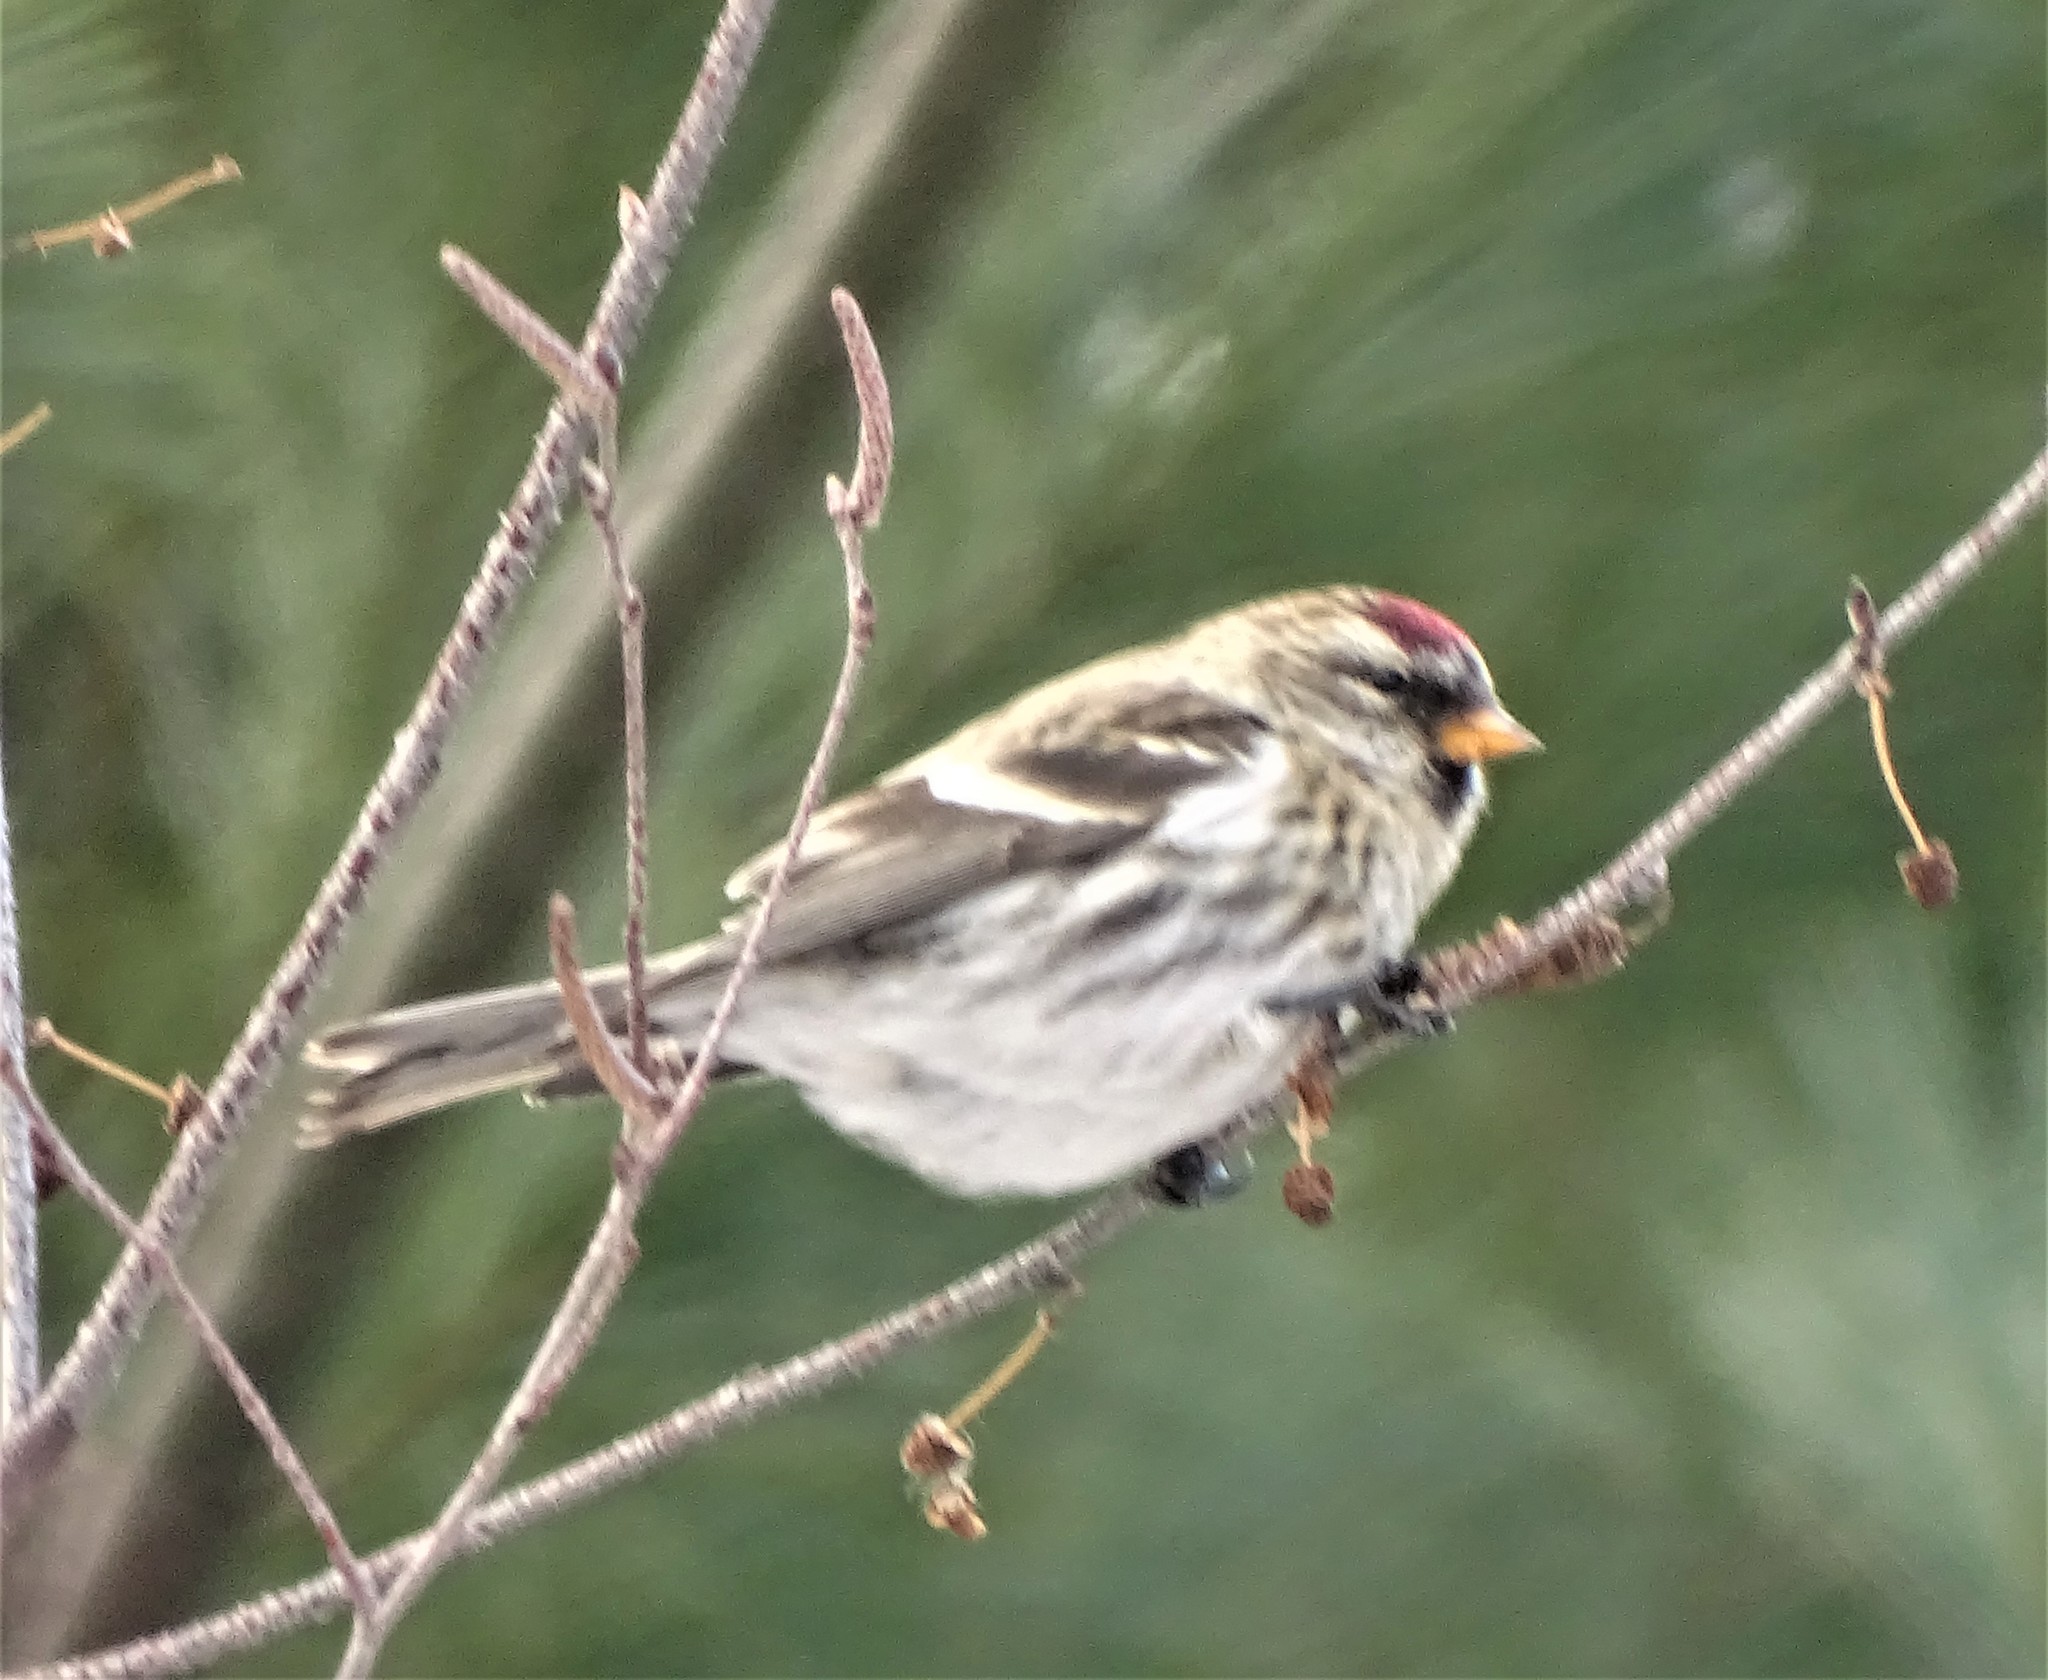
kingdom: Animalia
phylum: Chordata
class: Aves
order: Passeriformes
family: Fringillidae
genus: Acanthis
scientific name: Acanthis flammea
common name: Common redpoll
